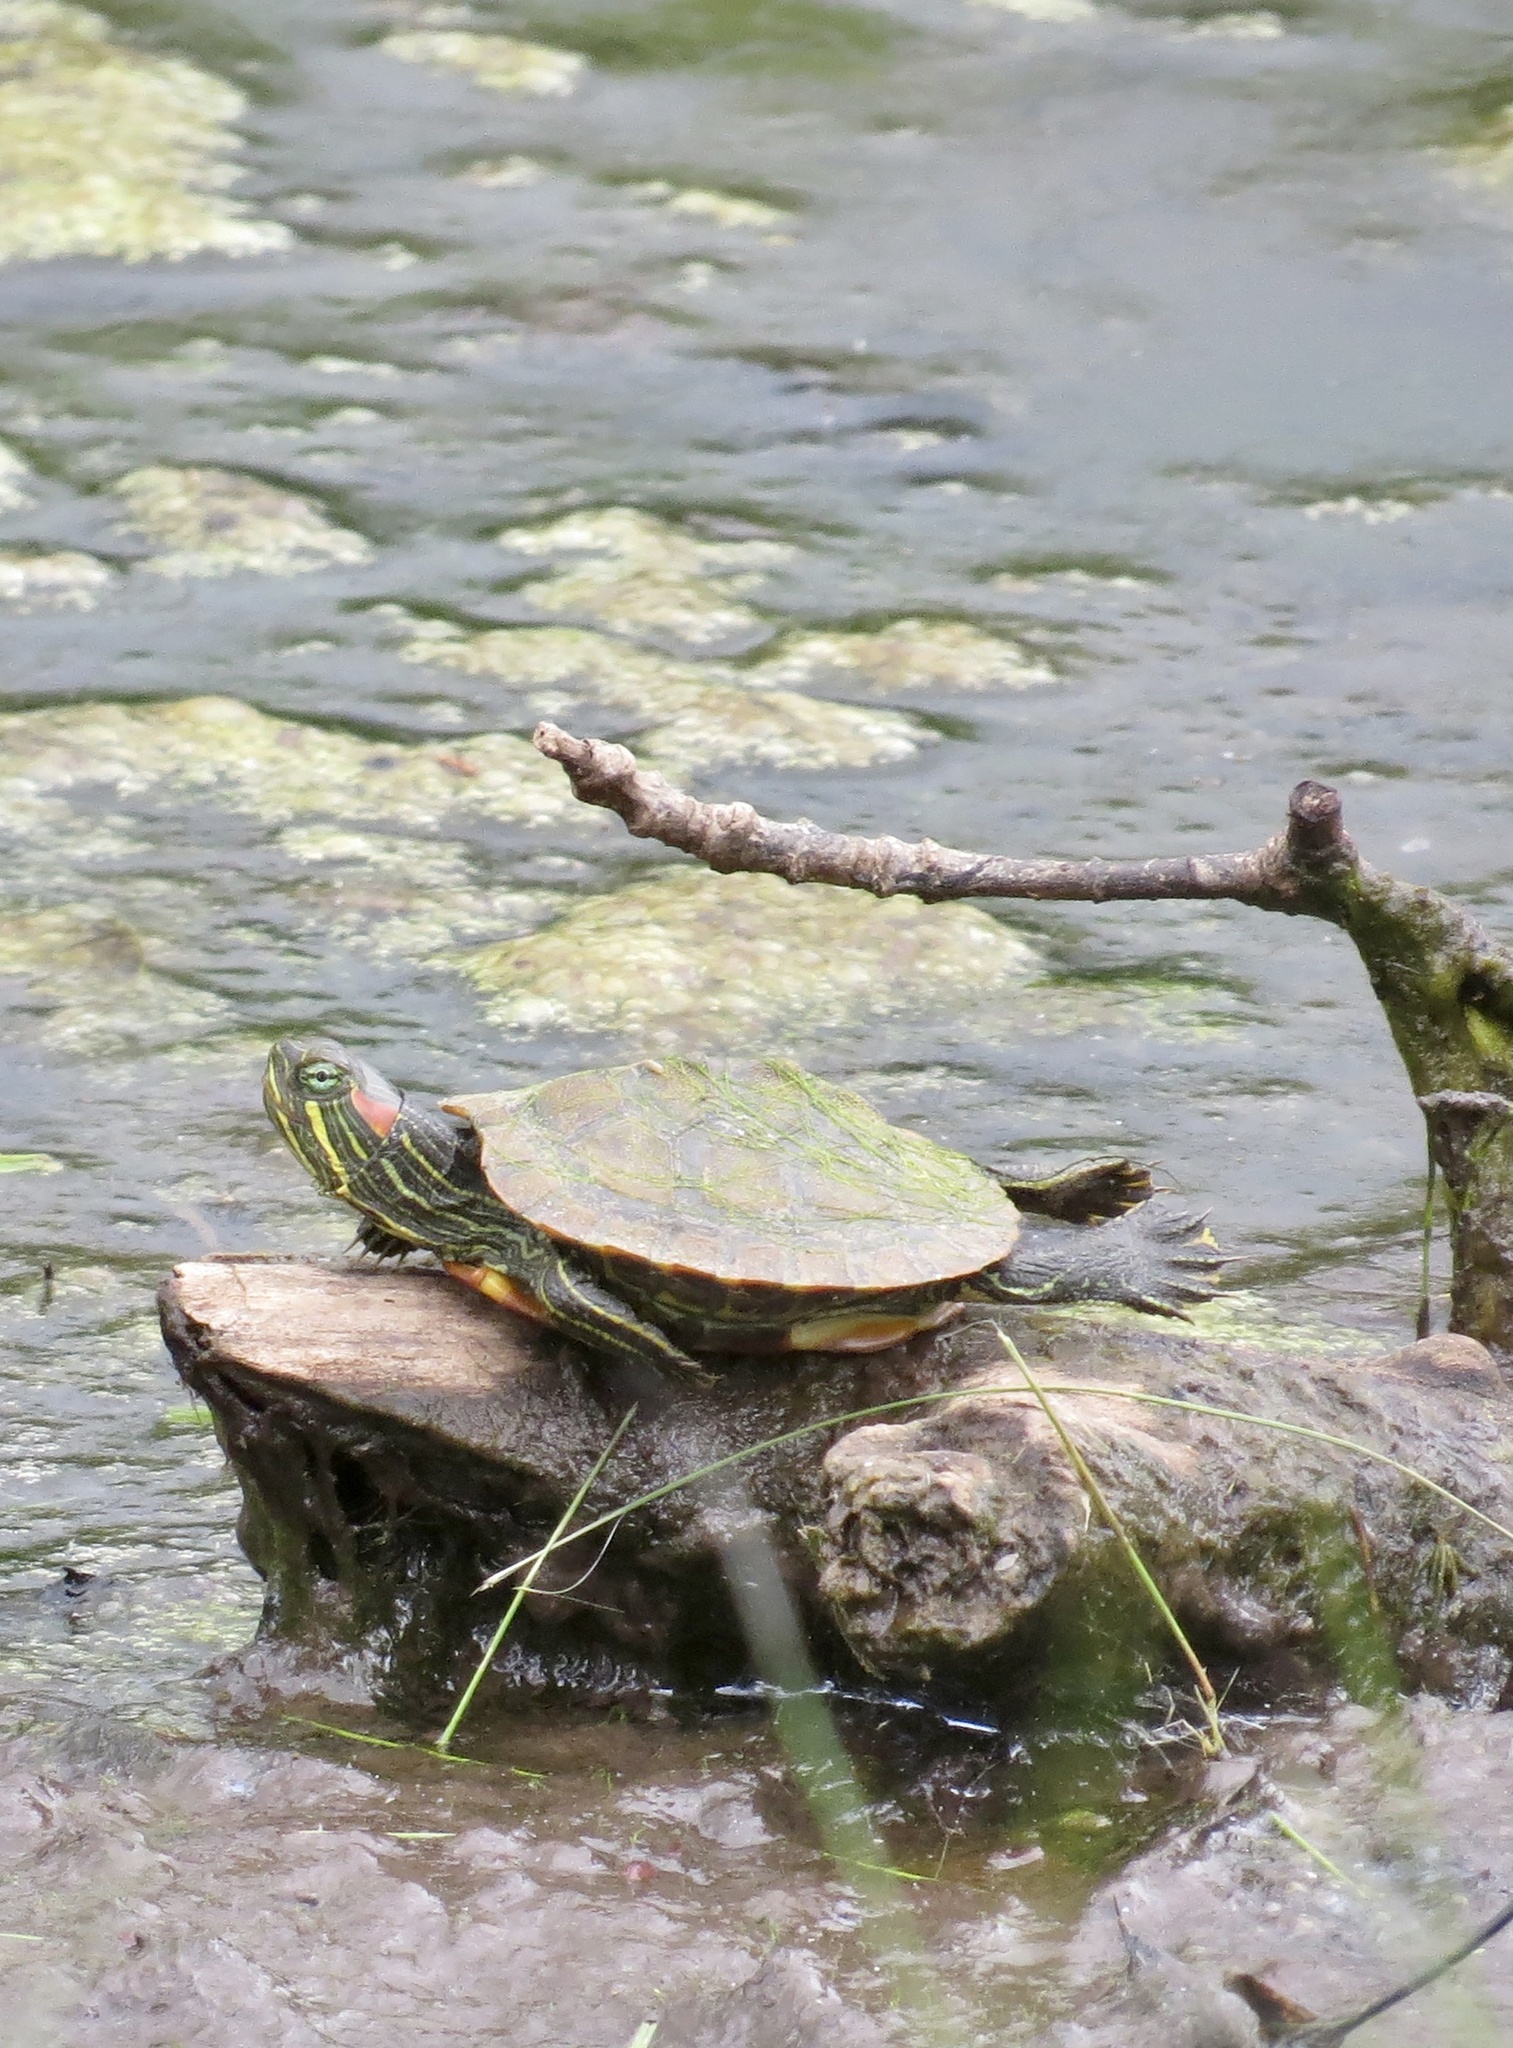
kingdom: Animalia
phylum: Chordata
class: Testudines
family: Emydidae
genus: Trachemys
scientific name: Trachemys scripta
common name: Slider
